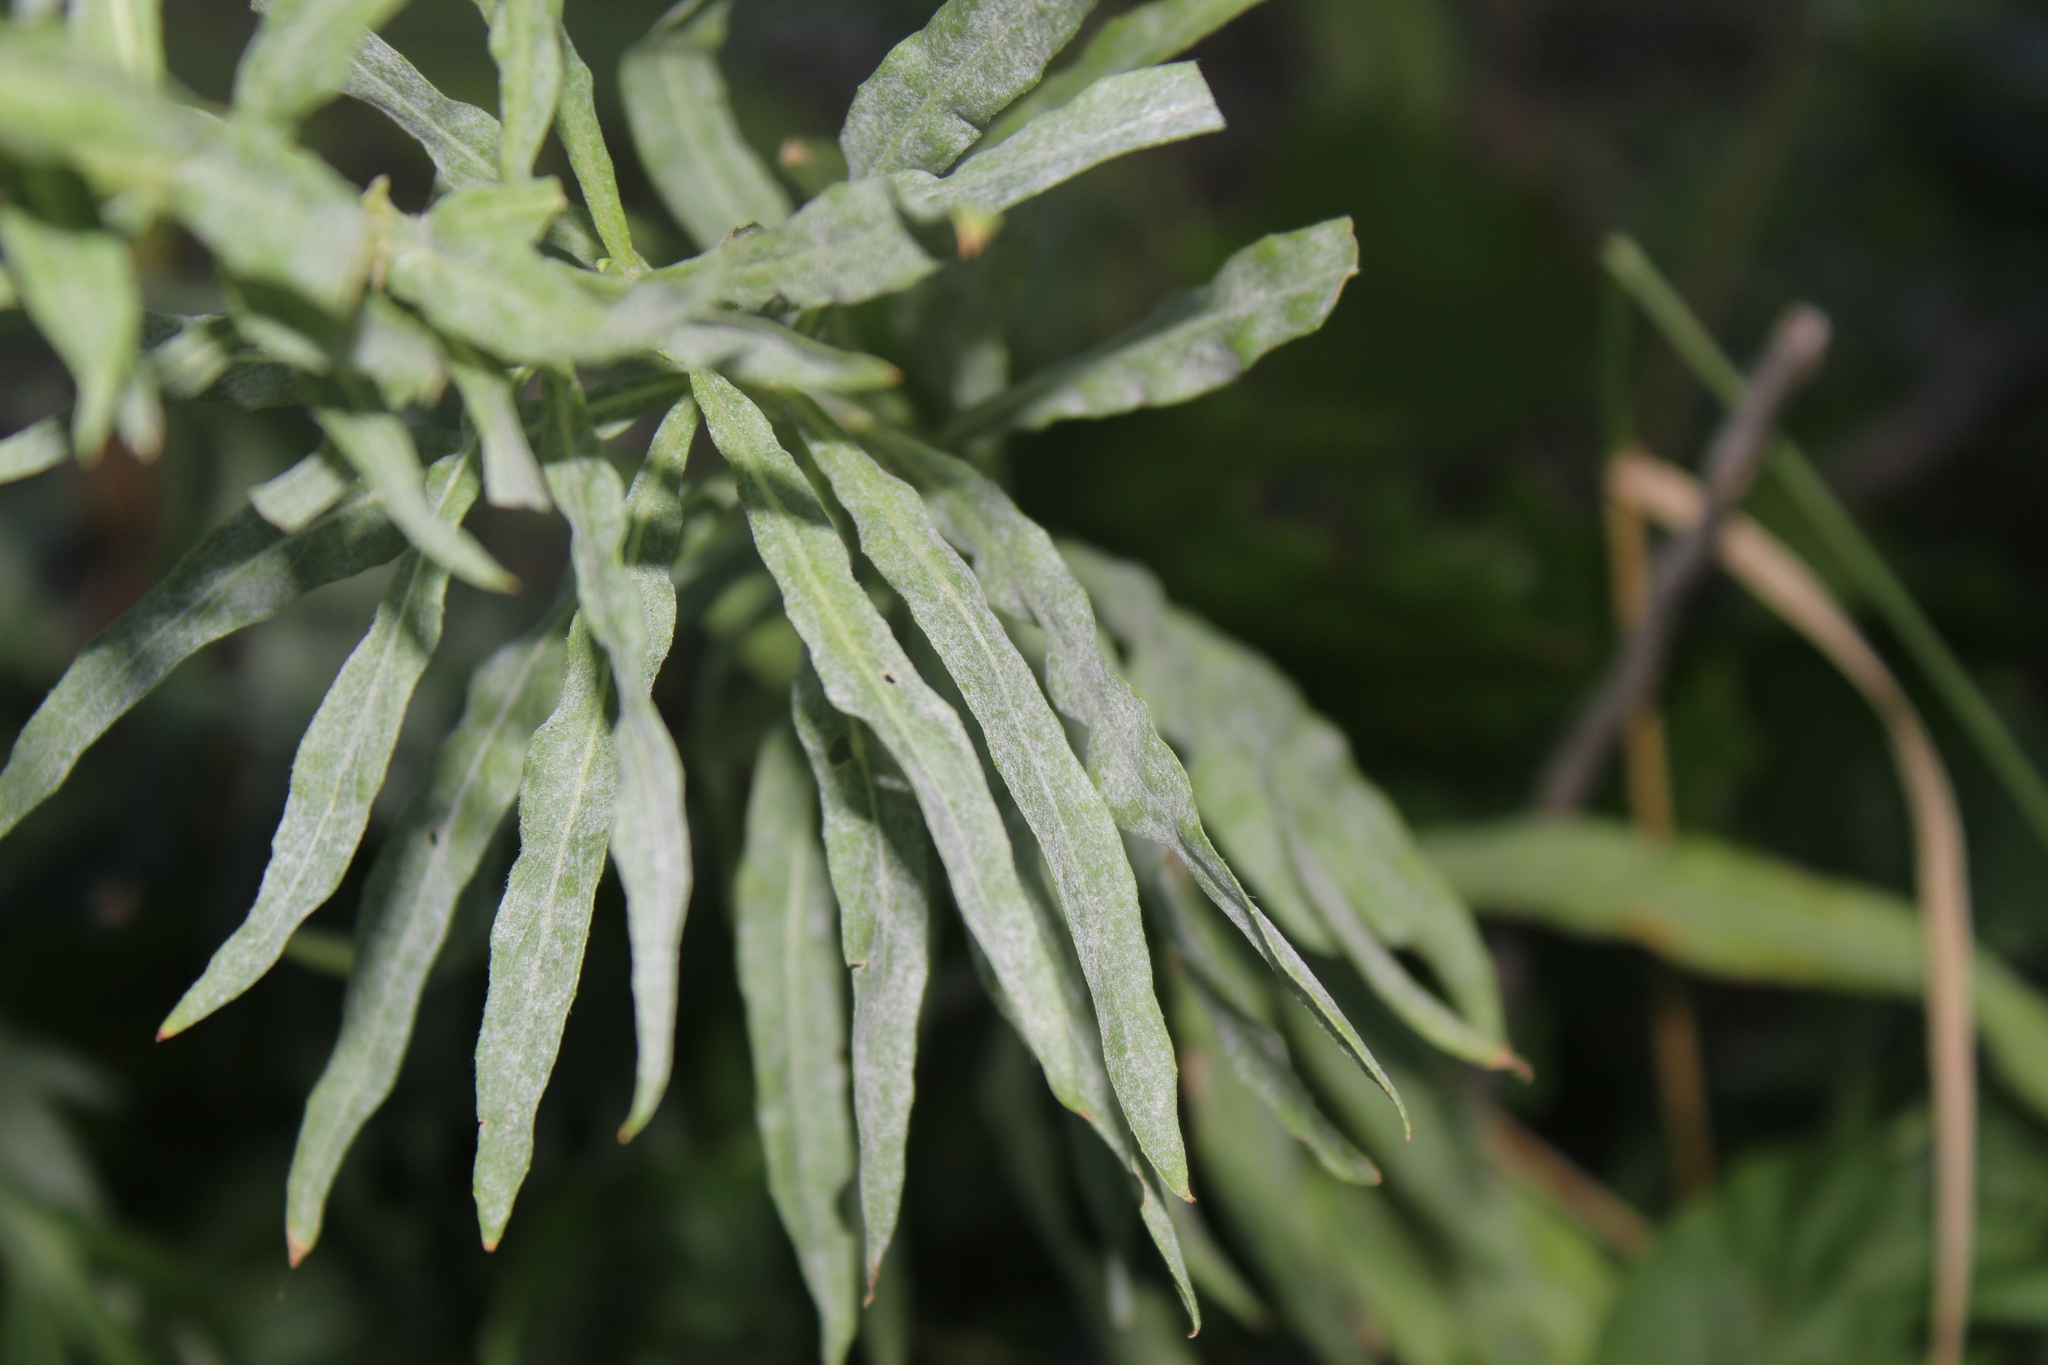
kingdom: Fungi
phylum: Ascomycota
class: Leotiomycetes
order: Helotiales
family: Erysiphaceae
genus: Erysiphe
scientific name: Erysiphe howeana
